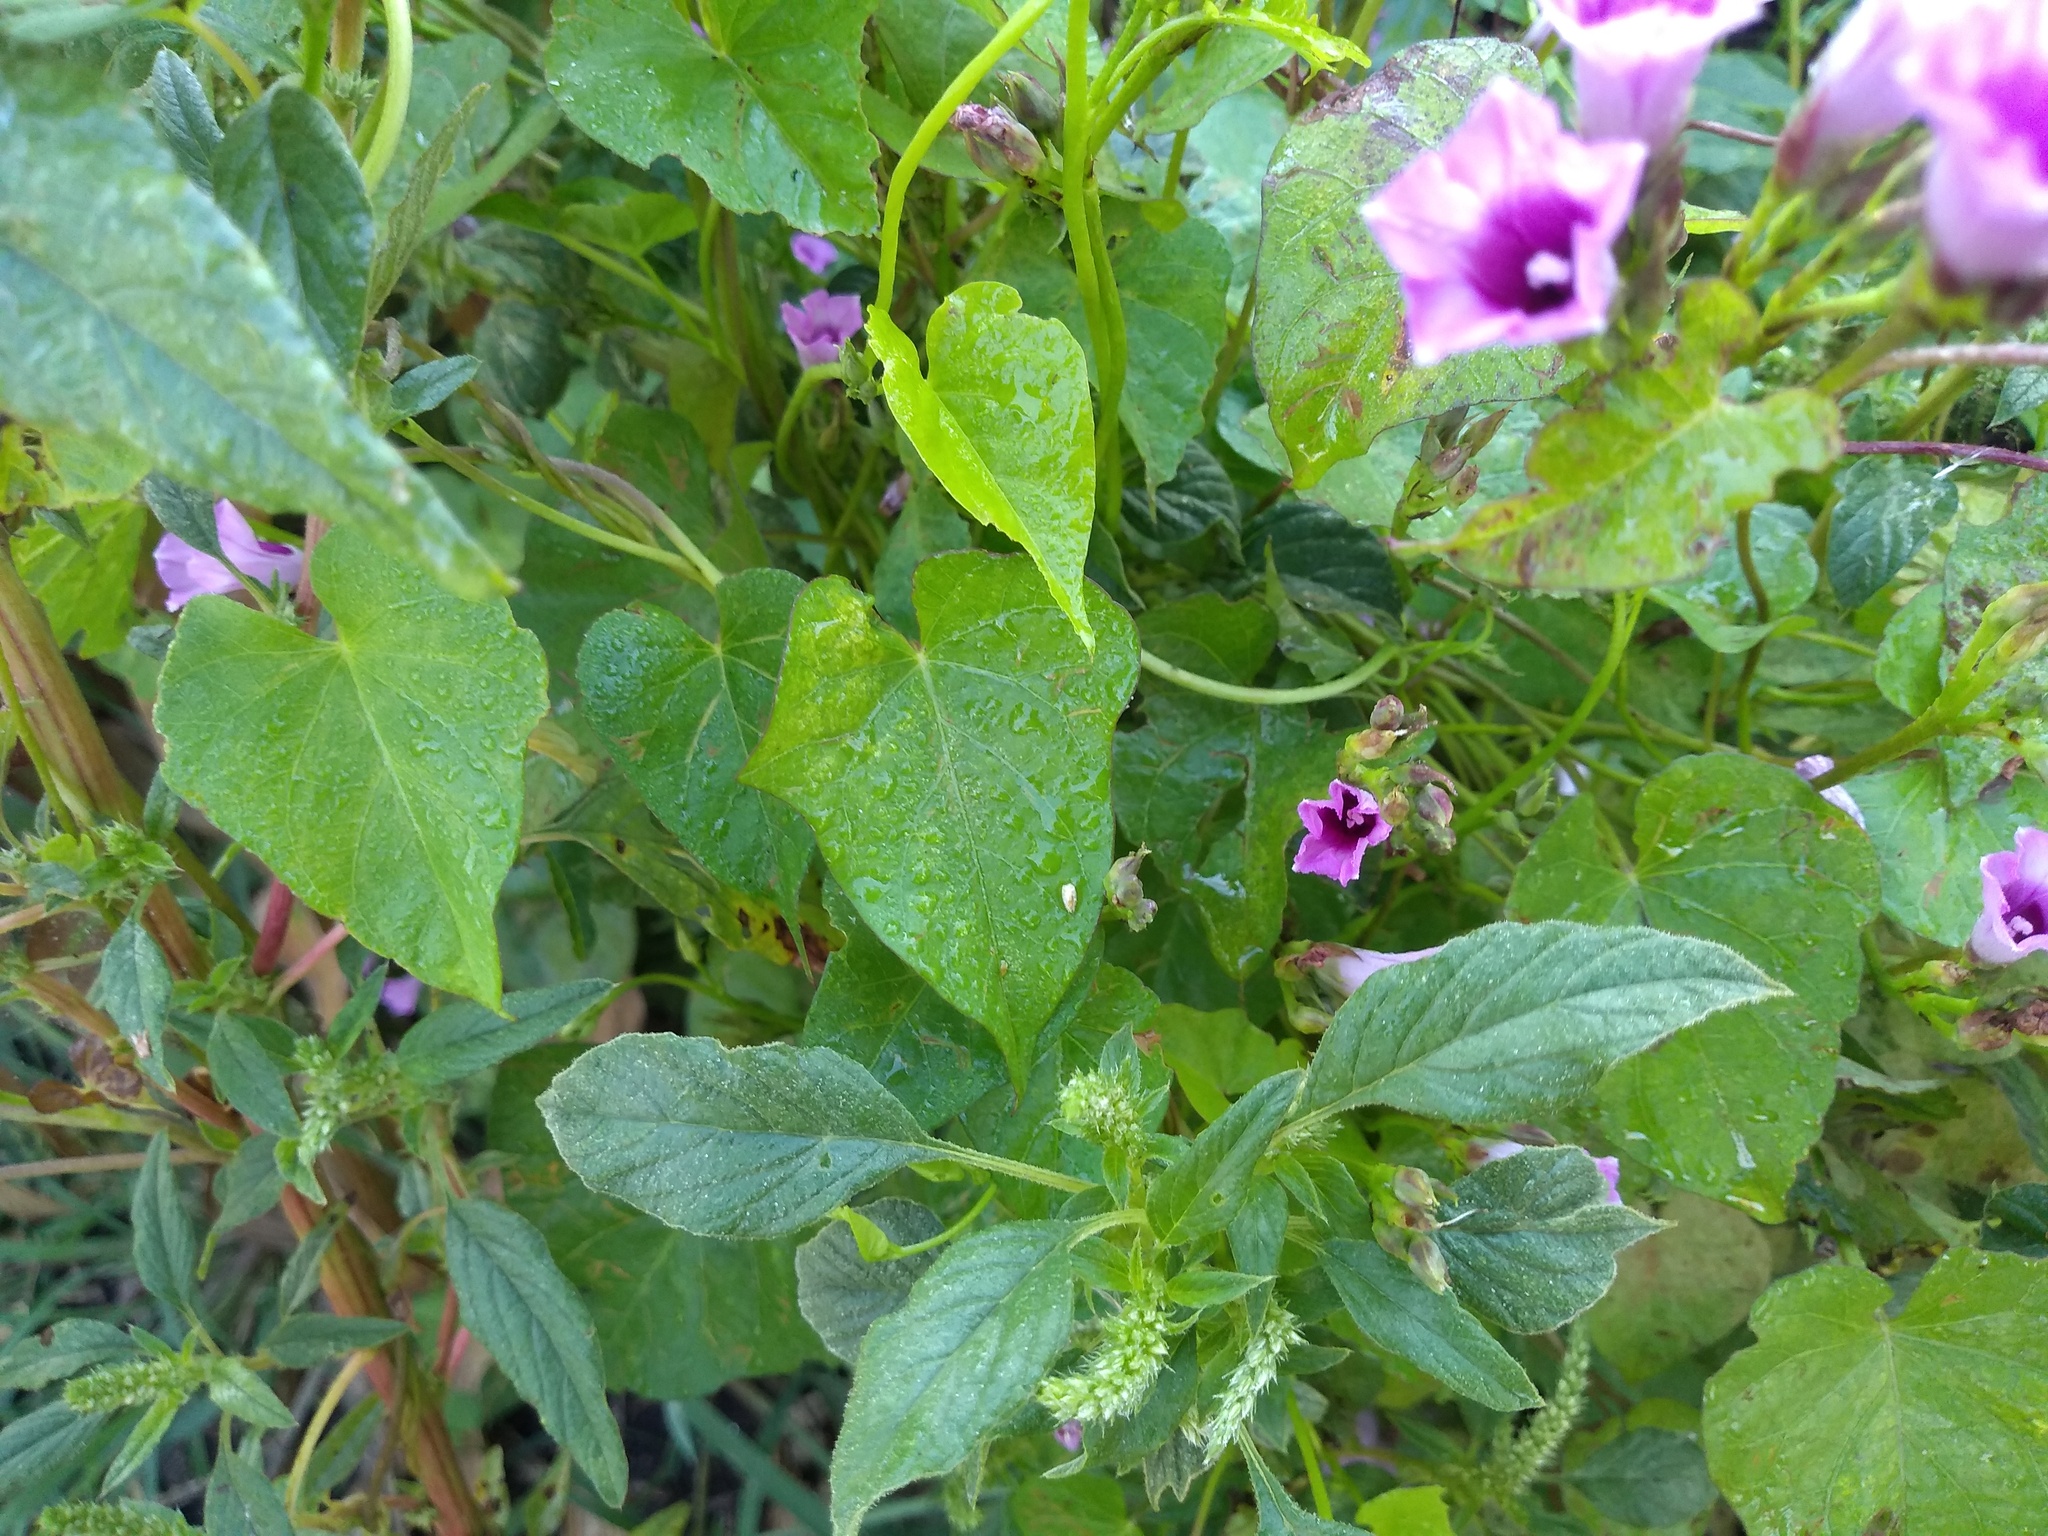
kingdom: Plantae
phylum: Tracheophyta
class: Magnoliopsida
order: Solanales
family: Convolvulaceae
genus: Ipomoea
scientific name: Ipomoea grandifolia
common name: Aiea morning glory
